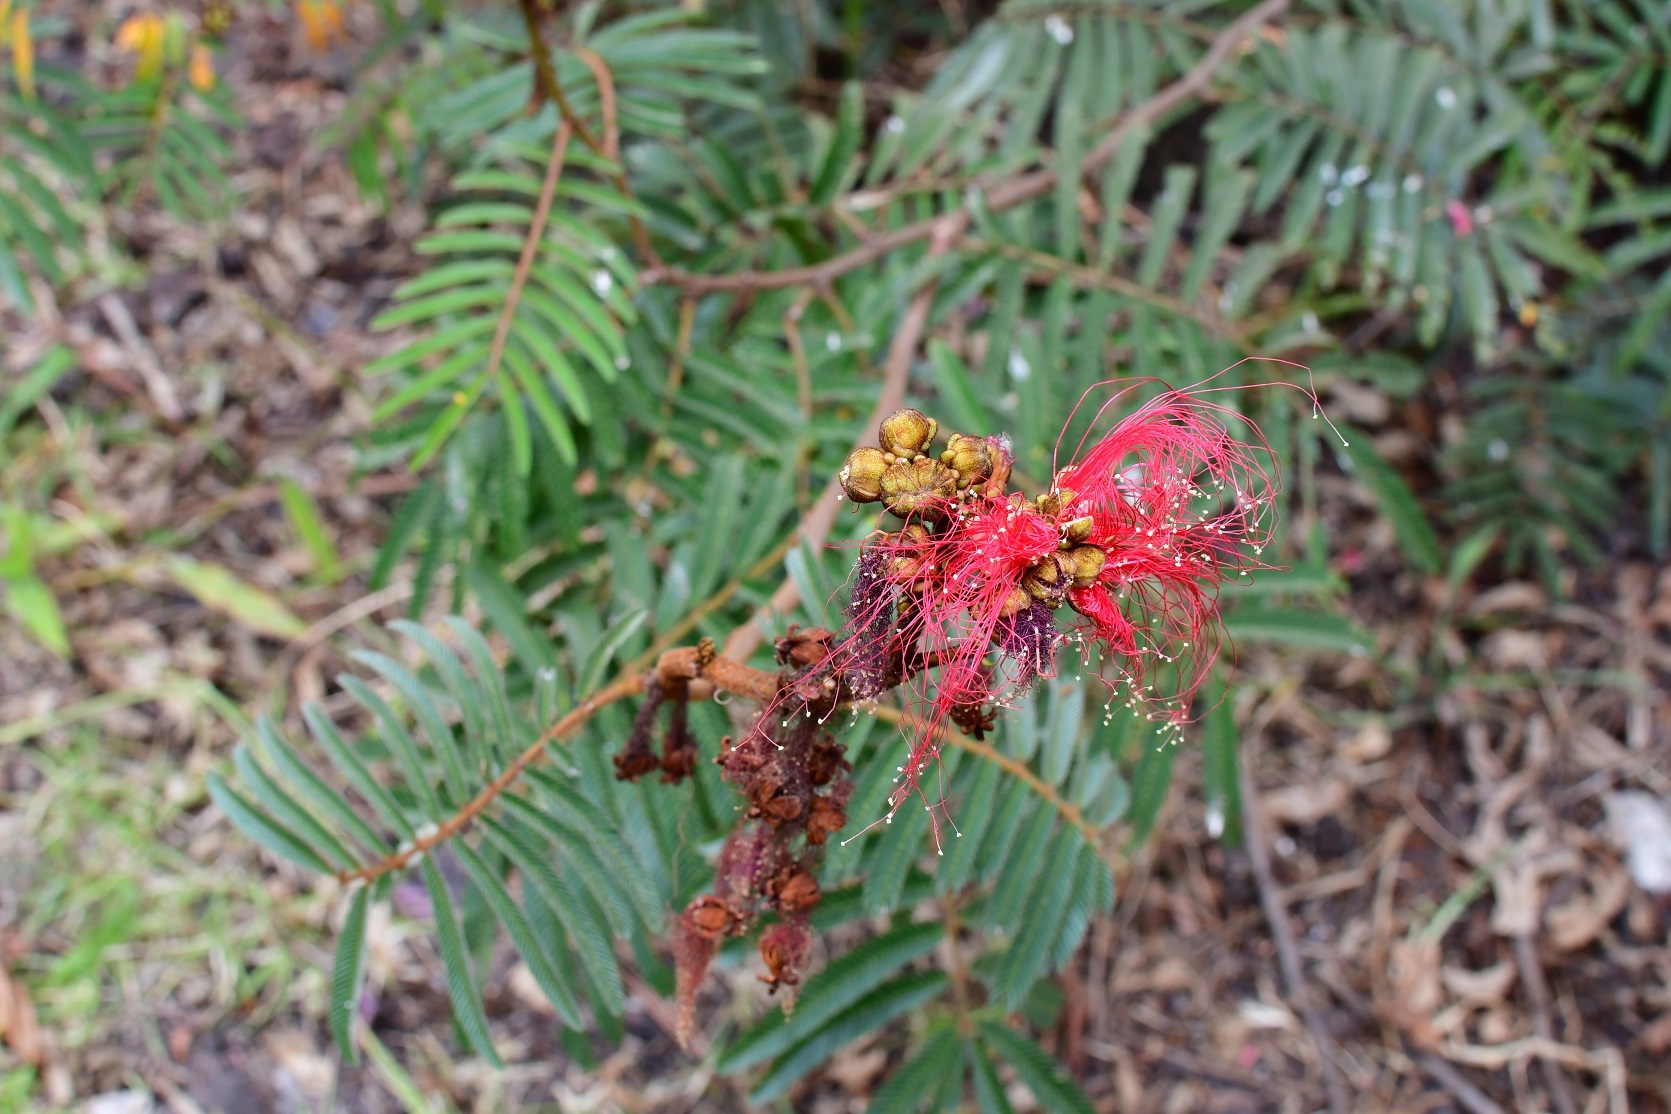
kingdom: Plantae
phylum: Tracheophyta
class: Magnoliopsida
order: Fabales
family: Fabaceae
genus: Calliandra
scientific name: Calliandra houstoniana
